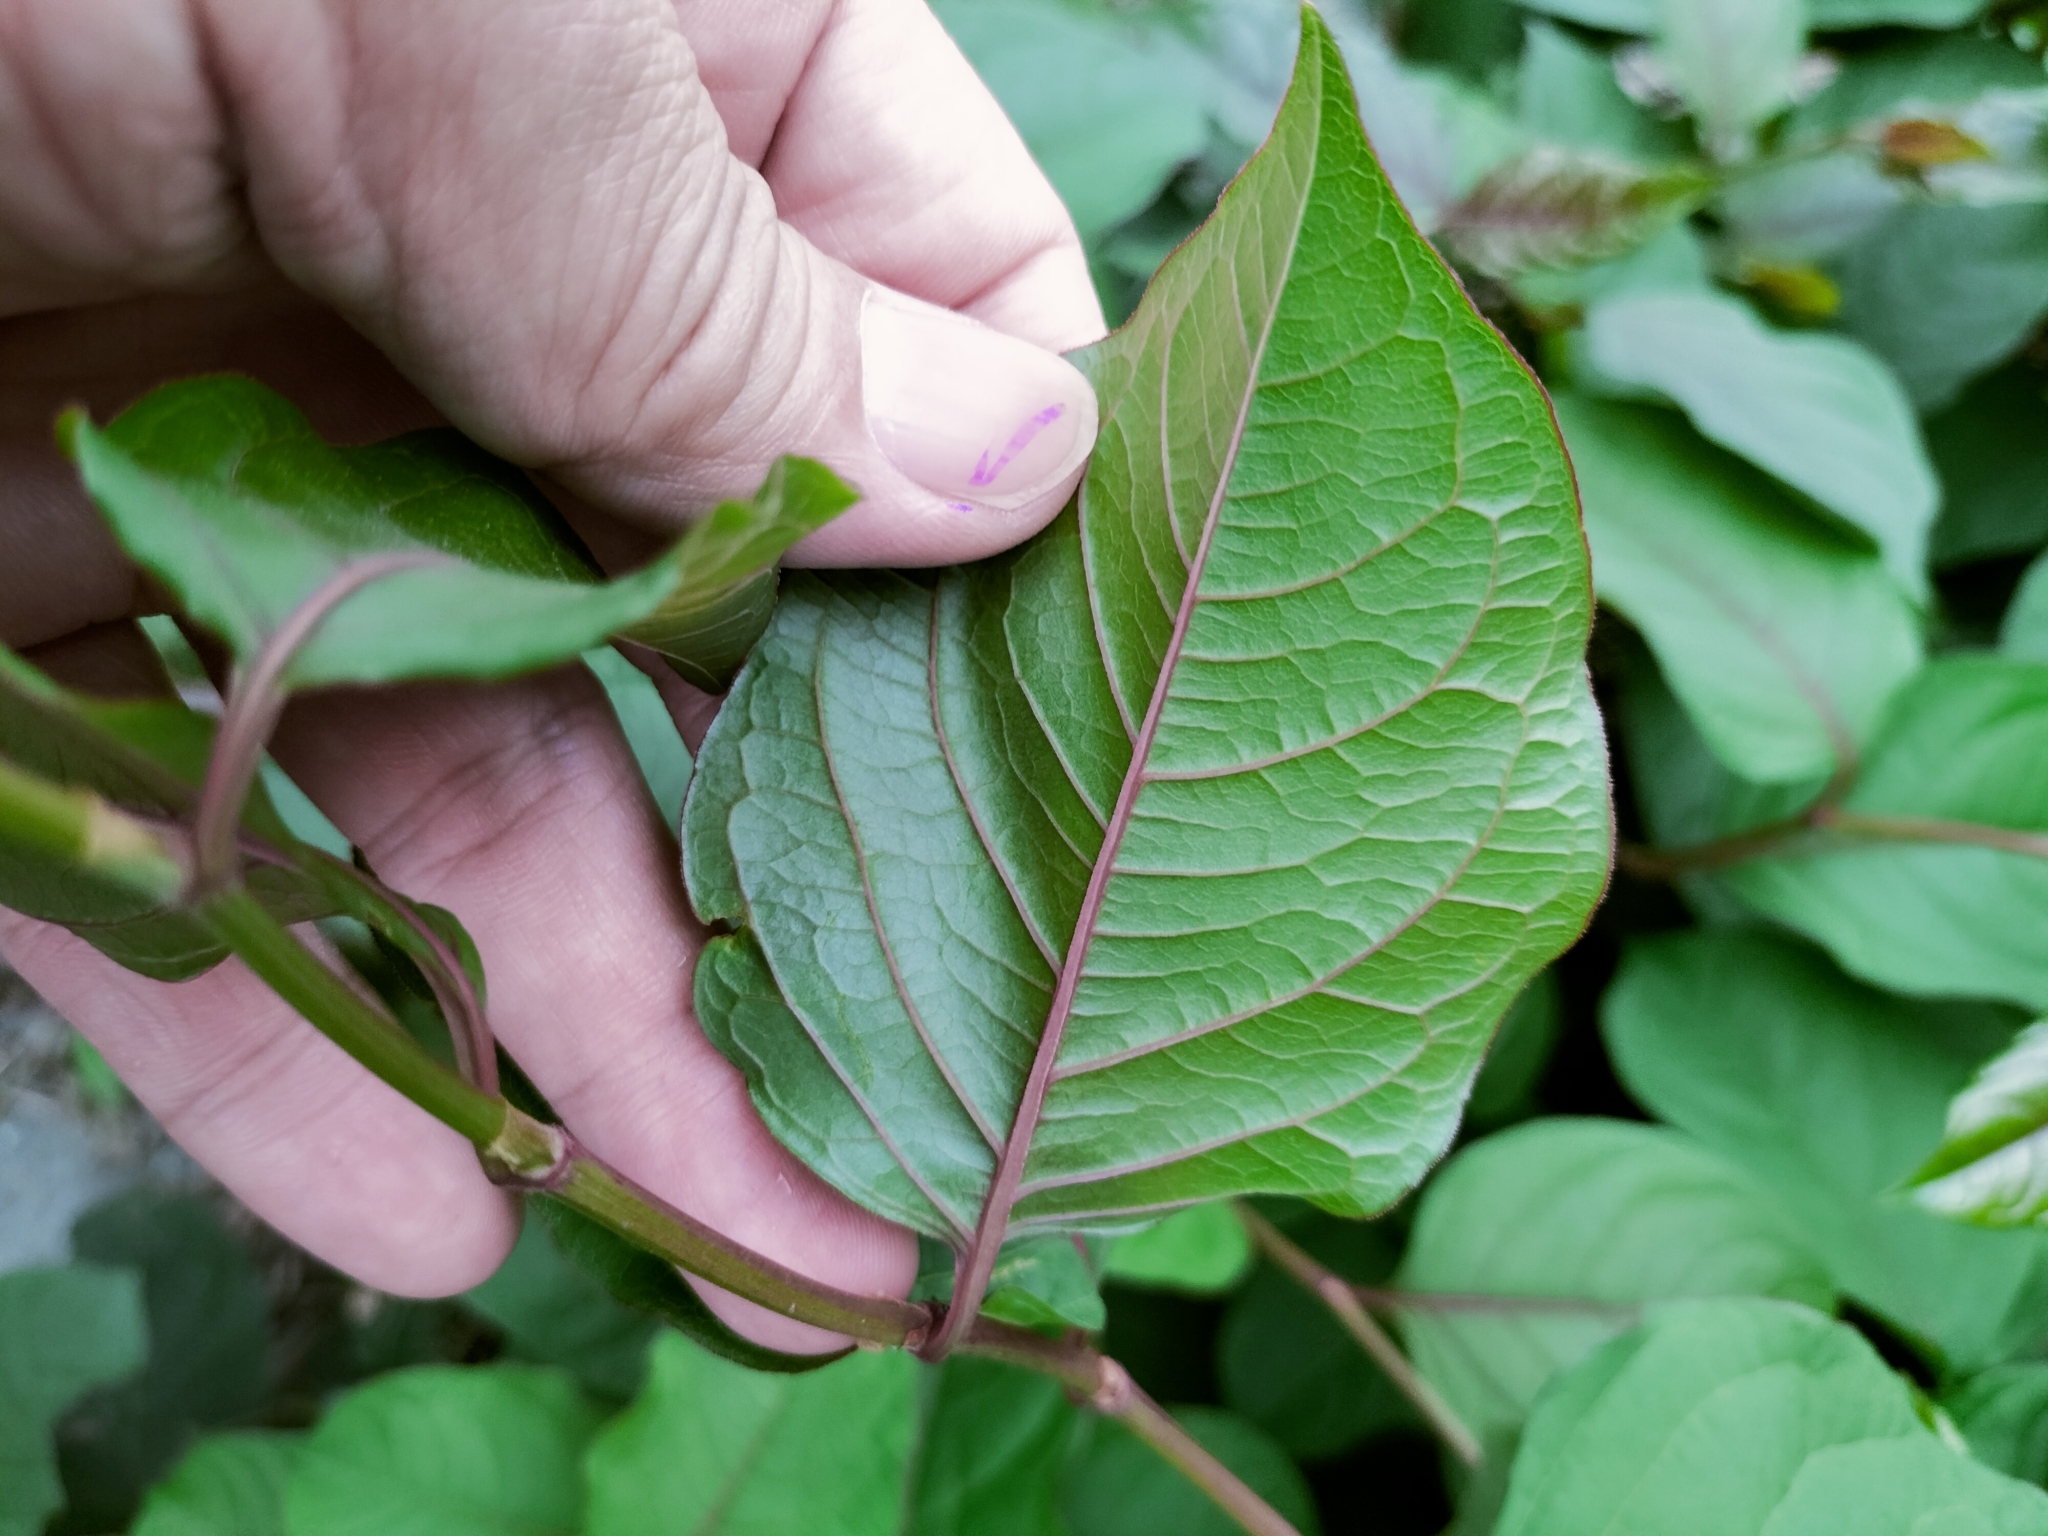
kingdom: Plantae
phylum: Tracheophyta
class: Magnoliopsida
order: Caryophyllales
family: Polygonaceae
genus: Persicaria
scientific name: Persicaria chinensis
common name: Chinese knotweed
